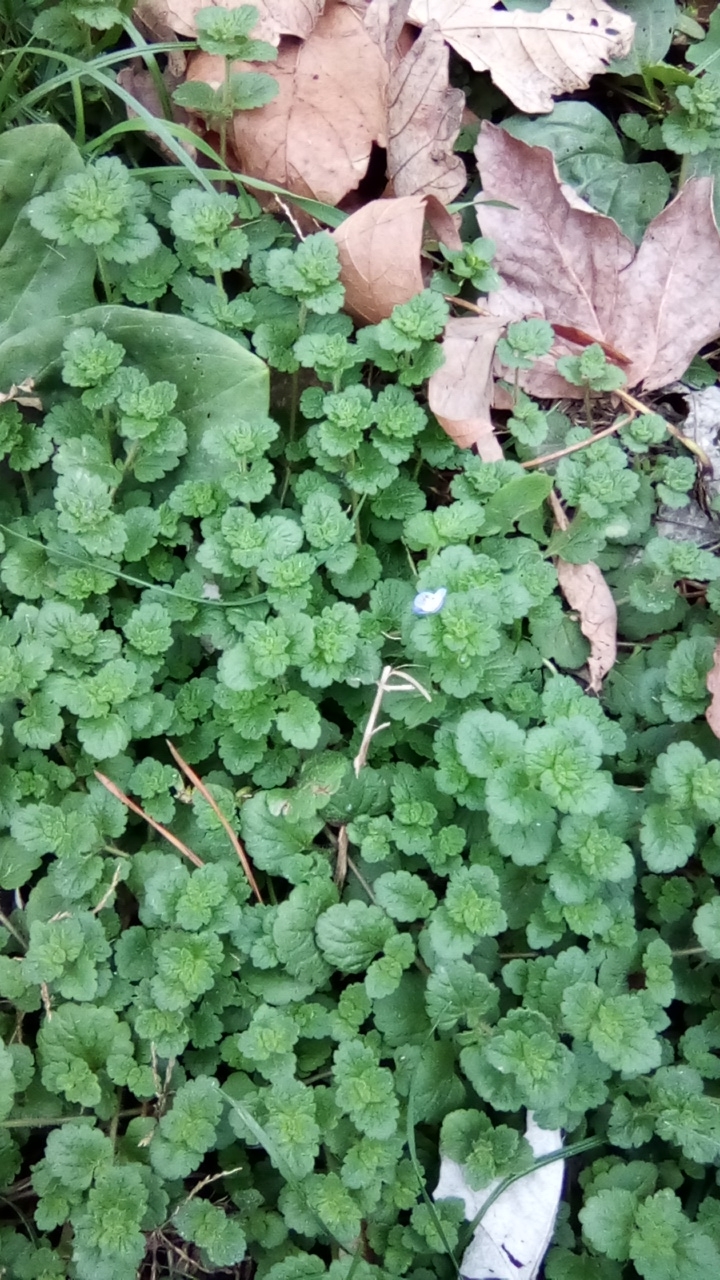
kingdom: Plantae
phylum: Tracheophyta
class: Magnoliopsida
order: Lamiales
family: Plantaginaceae
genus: Veronica
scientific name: Veronica persica
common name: Common field-speedwell
